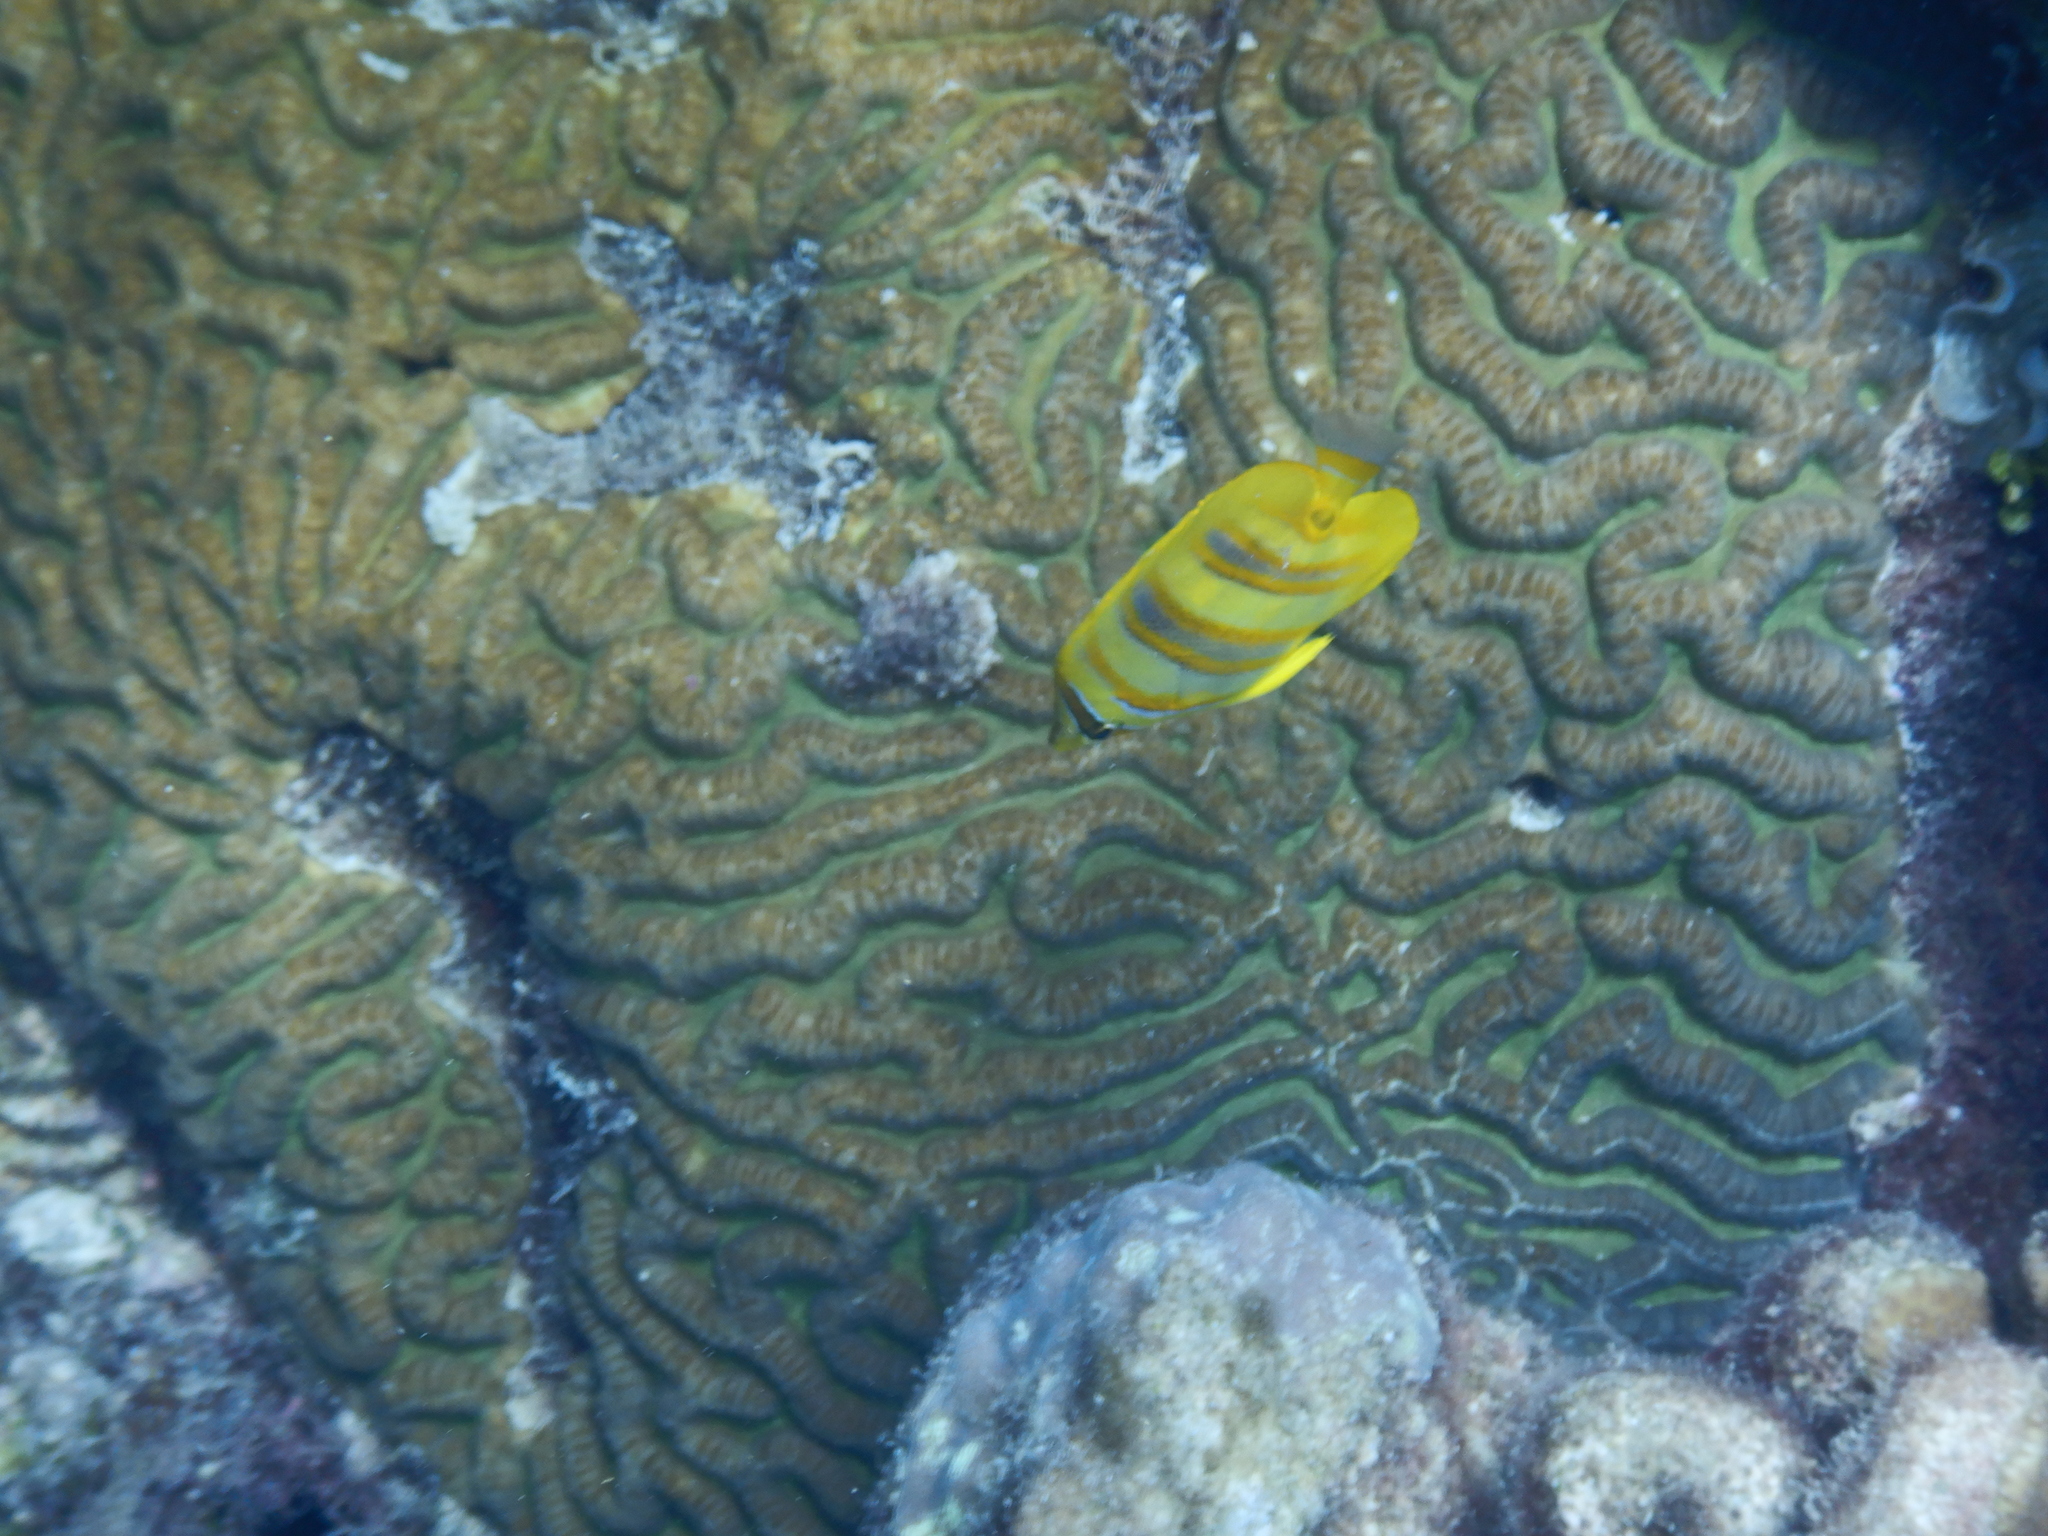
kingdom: Animalia
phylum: Chordata
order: Perciformes
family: Chaetodontidae
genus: Chaetodon
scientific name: Chaetodon rainfordi
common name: Rainford's butterflyfish
